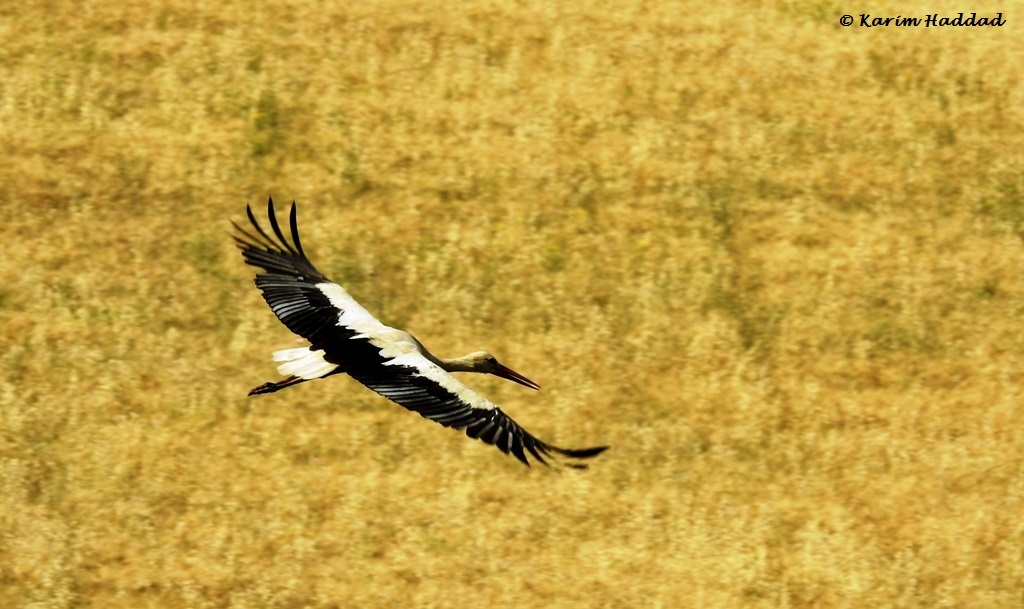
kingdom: Animalia
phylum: Chordata
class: Aves
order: Ciconiiformes
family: Ciconiidae
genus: Ciconia
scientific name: Ciconia ciconia
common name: White stork
